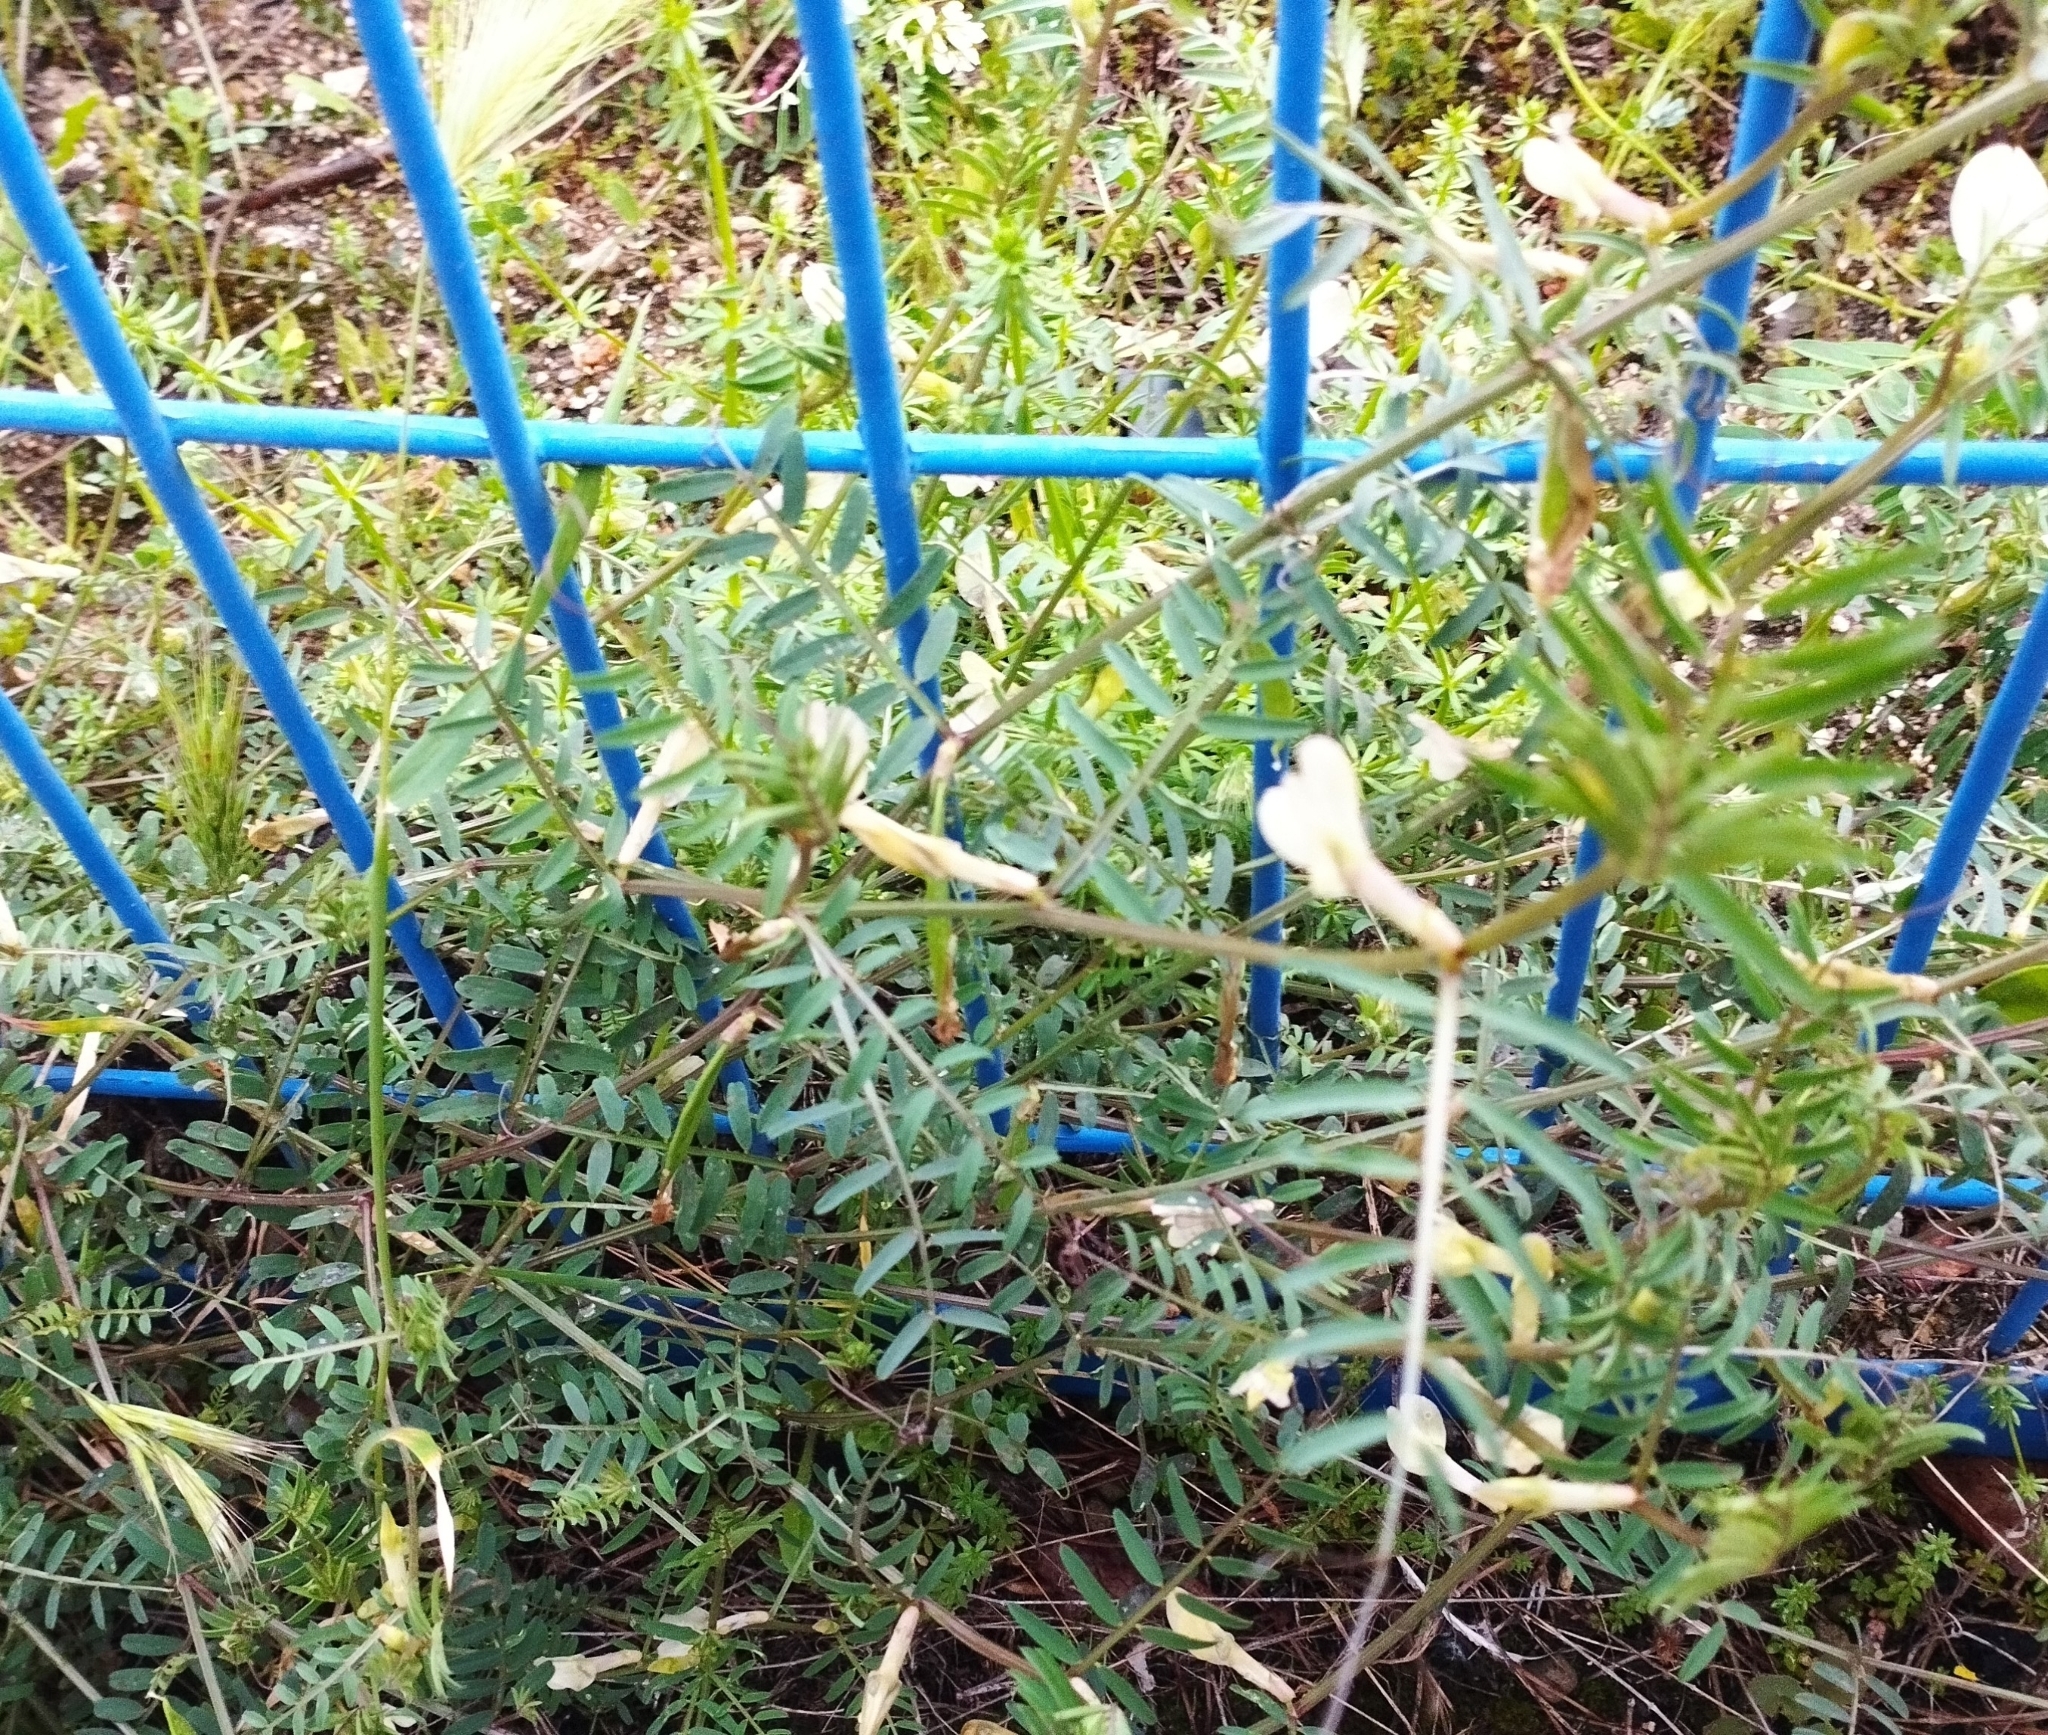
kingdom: Plantae
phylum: Tracheophyta
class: Magnoliopsida
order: Fabales
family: Fabaceae
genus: Vicia
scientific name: Vicia lutea
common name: Smooth yellow vetch
